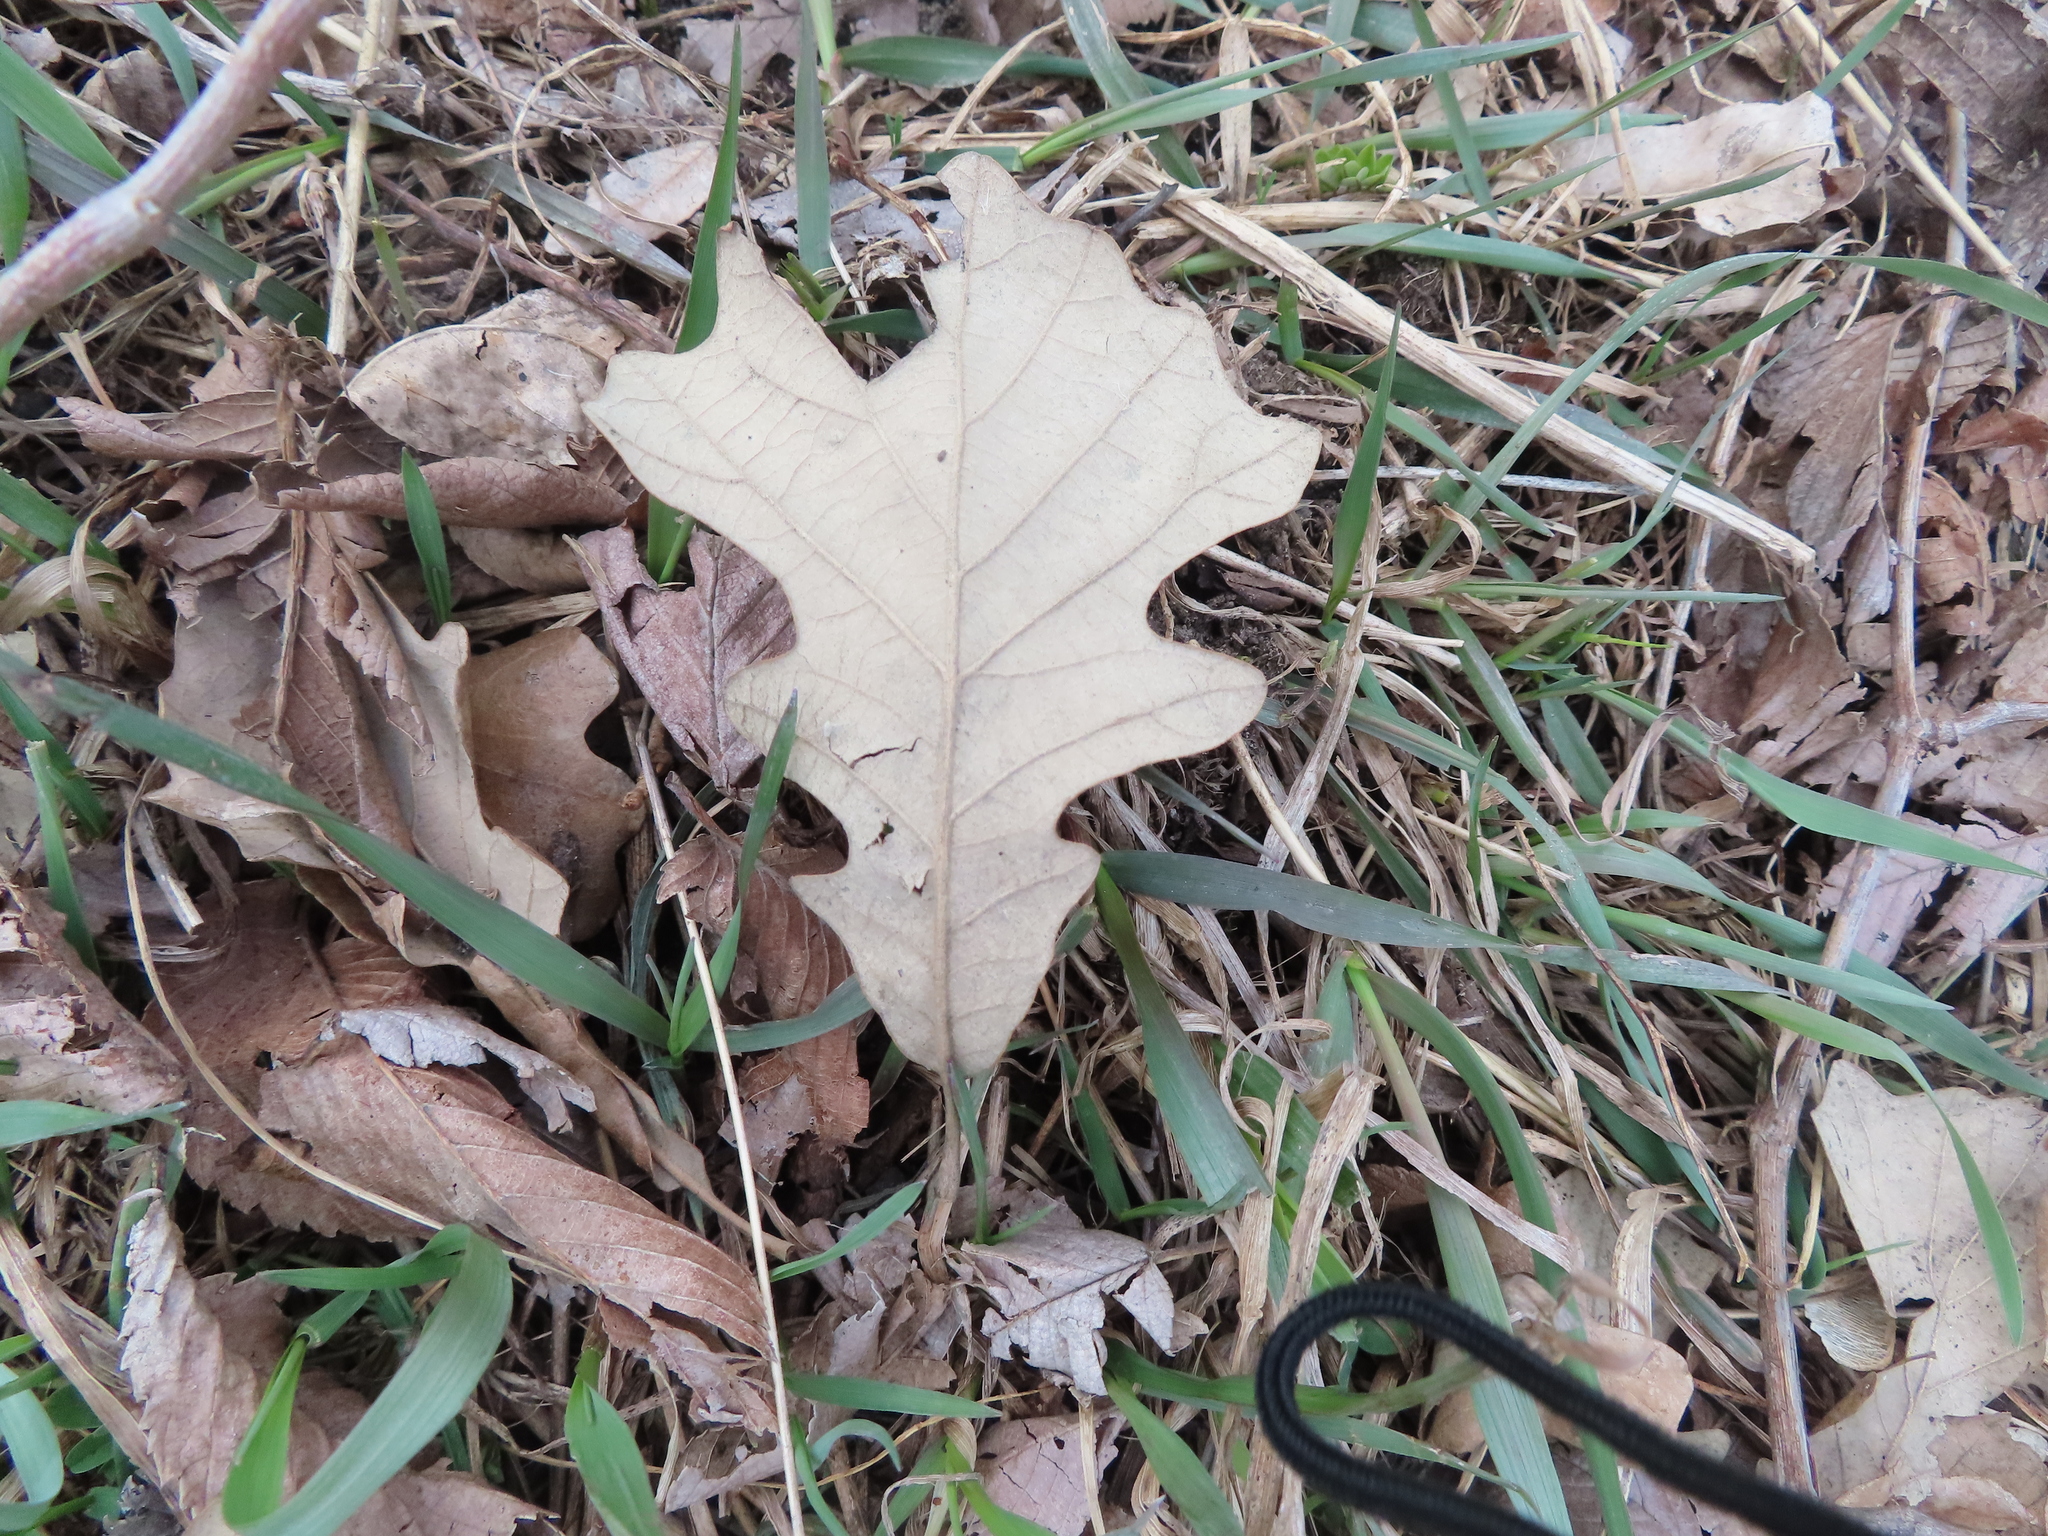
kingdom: Plantae
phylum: Tracheophyta
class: Magnoliopsida
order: Fagales
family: Fagaceae
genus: Quercus
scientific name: Quercus macrocarpa
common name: Bur oak
